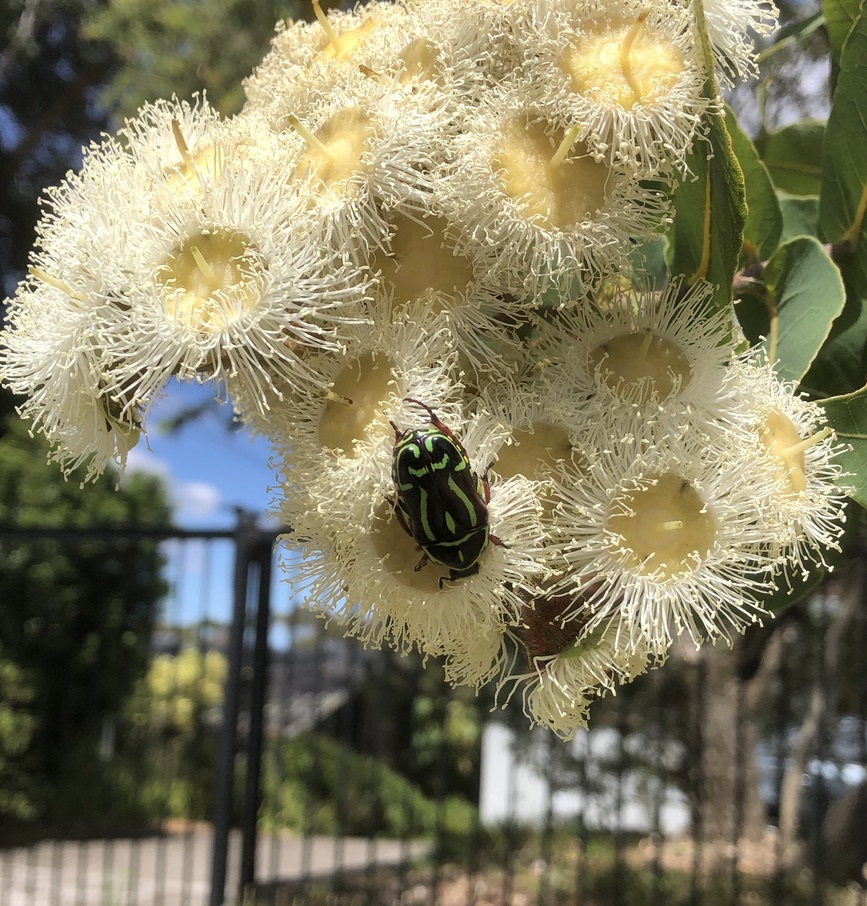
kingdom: Animalia
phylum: Arthropoda
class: Insecta
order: Coleoptera
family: Scarabaeidae
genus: Eupoecila
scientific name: Eupoecila australasiae
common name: Fiddler beetle
